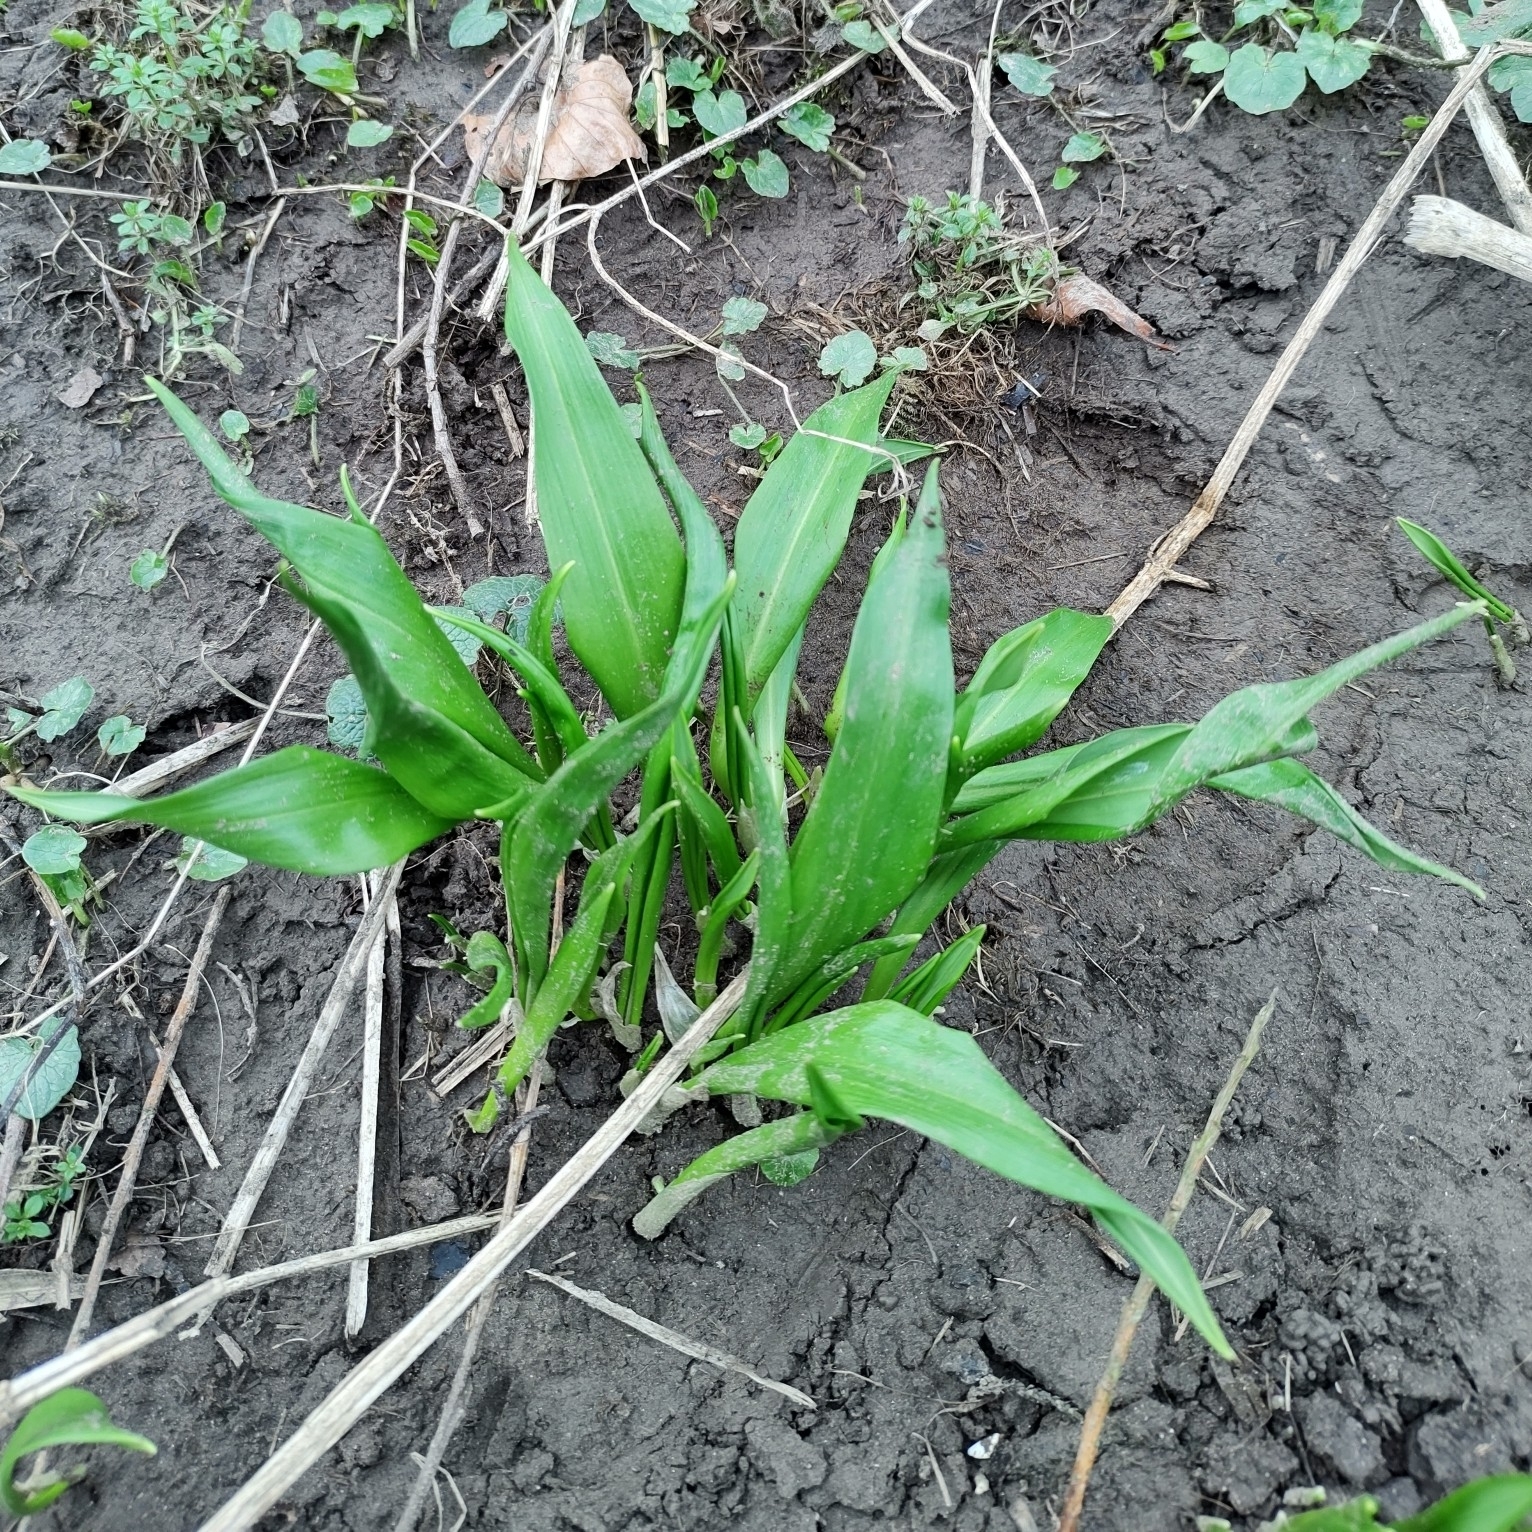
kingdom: Plantae
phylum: Tracheophyta
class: Liliopsida
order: Asparagales
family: Amaryllidaceae
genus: Allium
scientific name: Allium ursinum
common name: Ramsons
